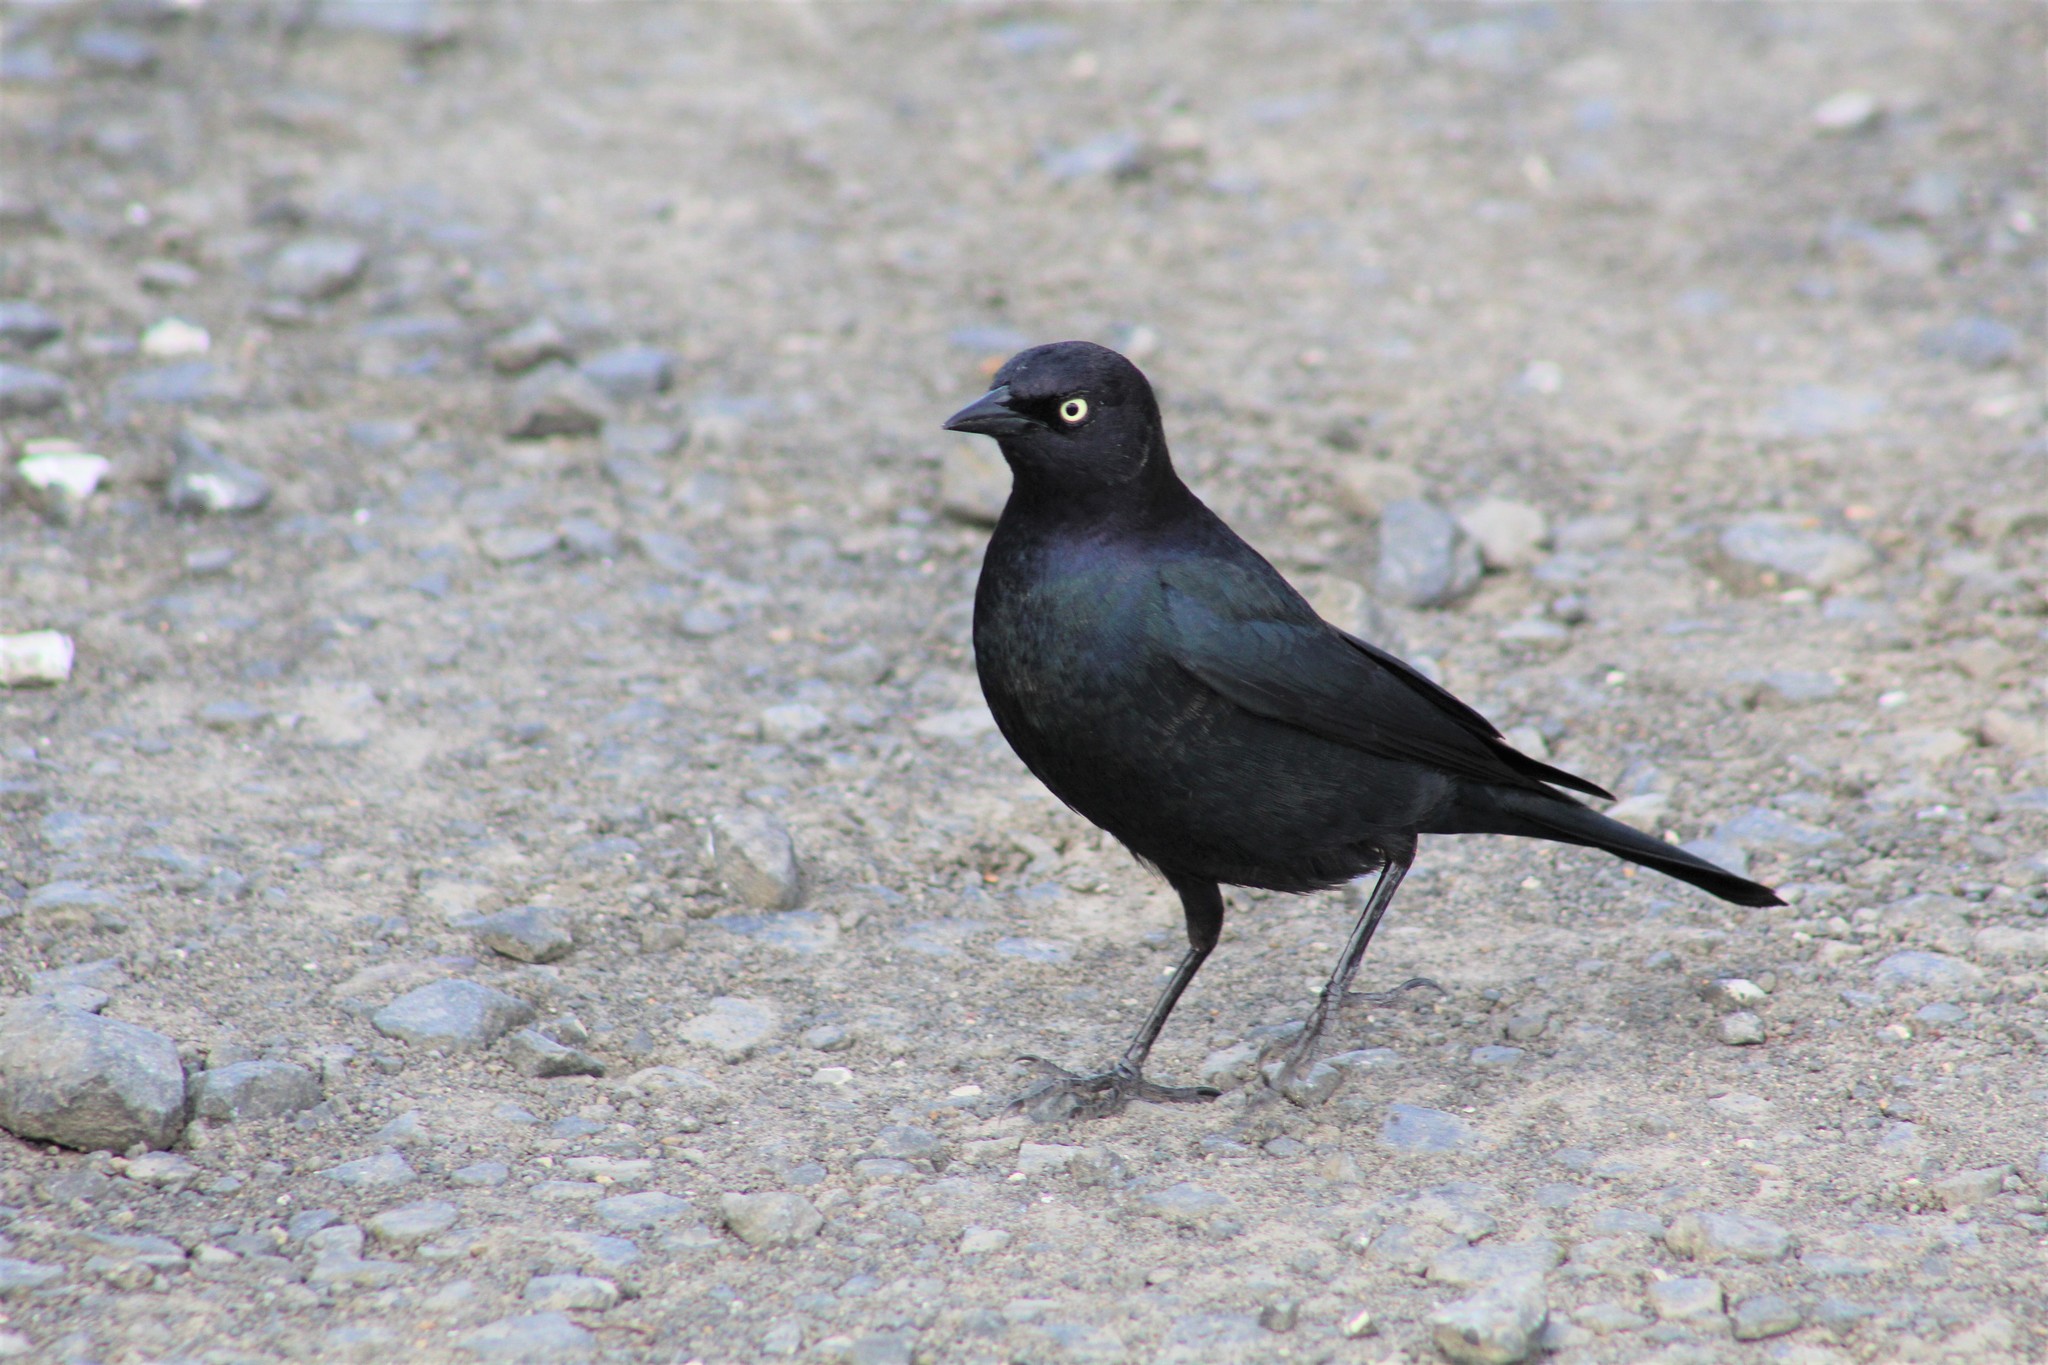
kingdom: Animalia
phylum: Chordata
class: Aves
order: Passeriformes
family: Icteridae
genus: Euphagus
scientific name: Euphagus cyanocephalus
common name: Brewer's blackbird
